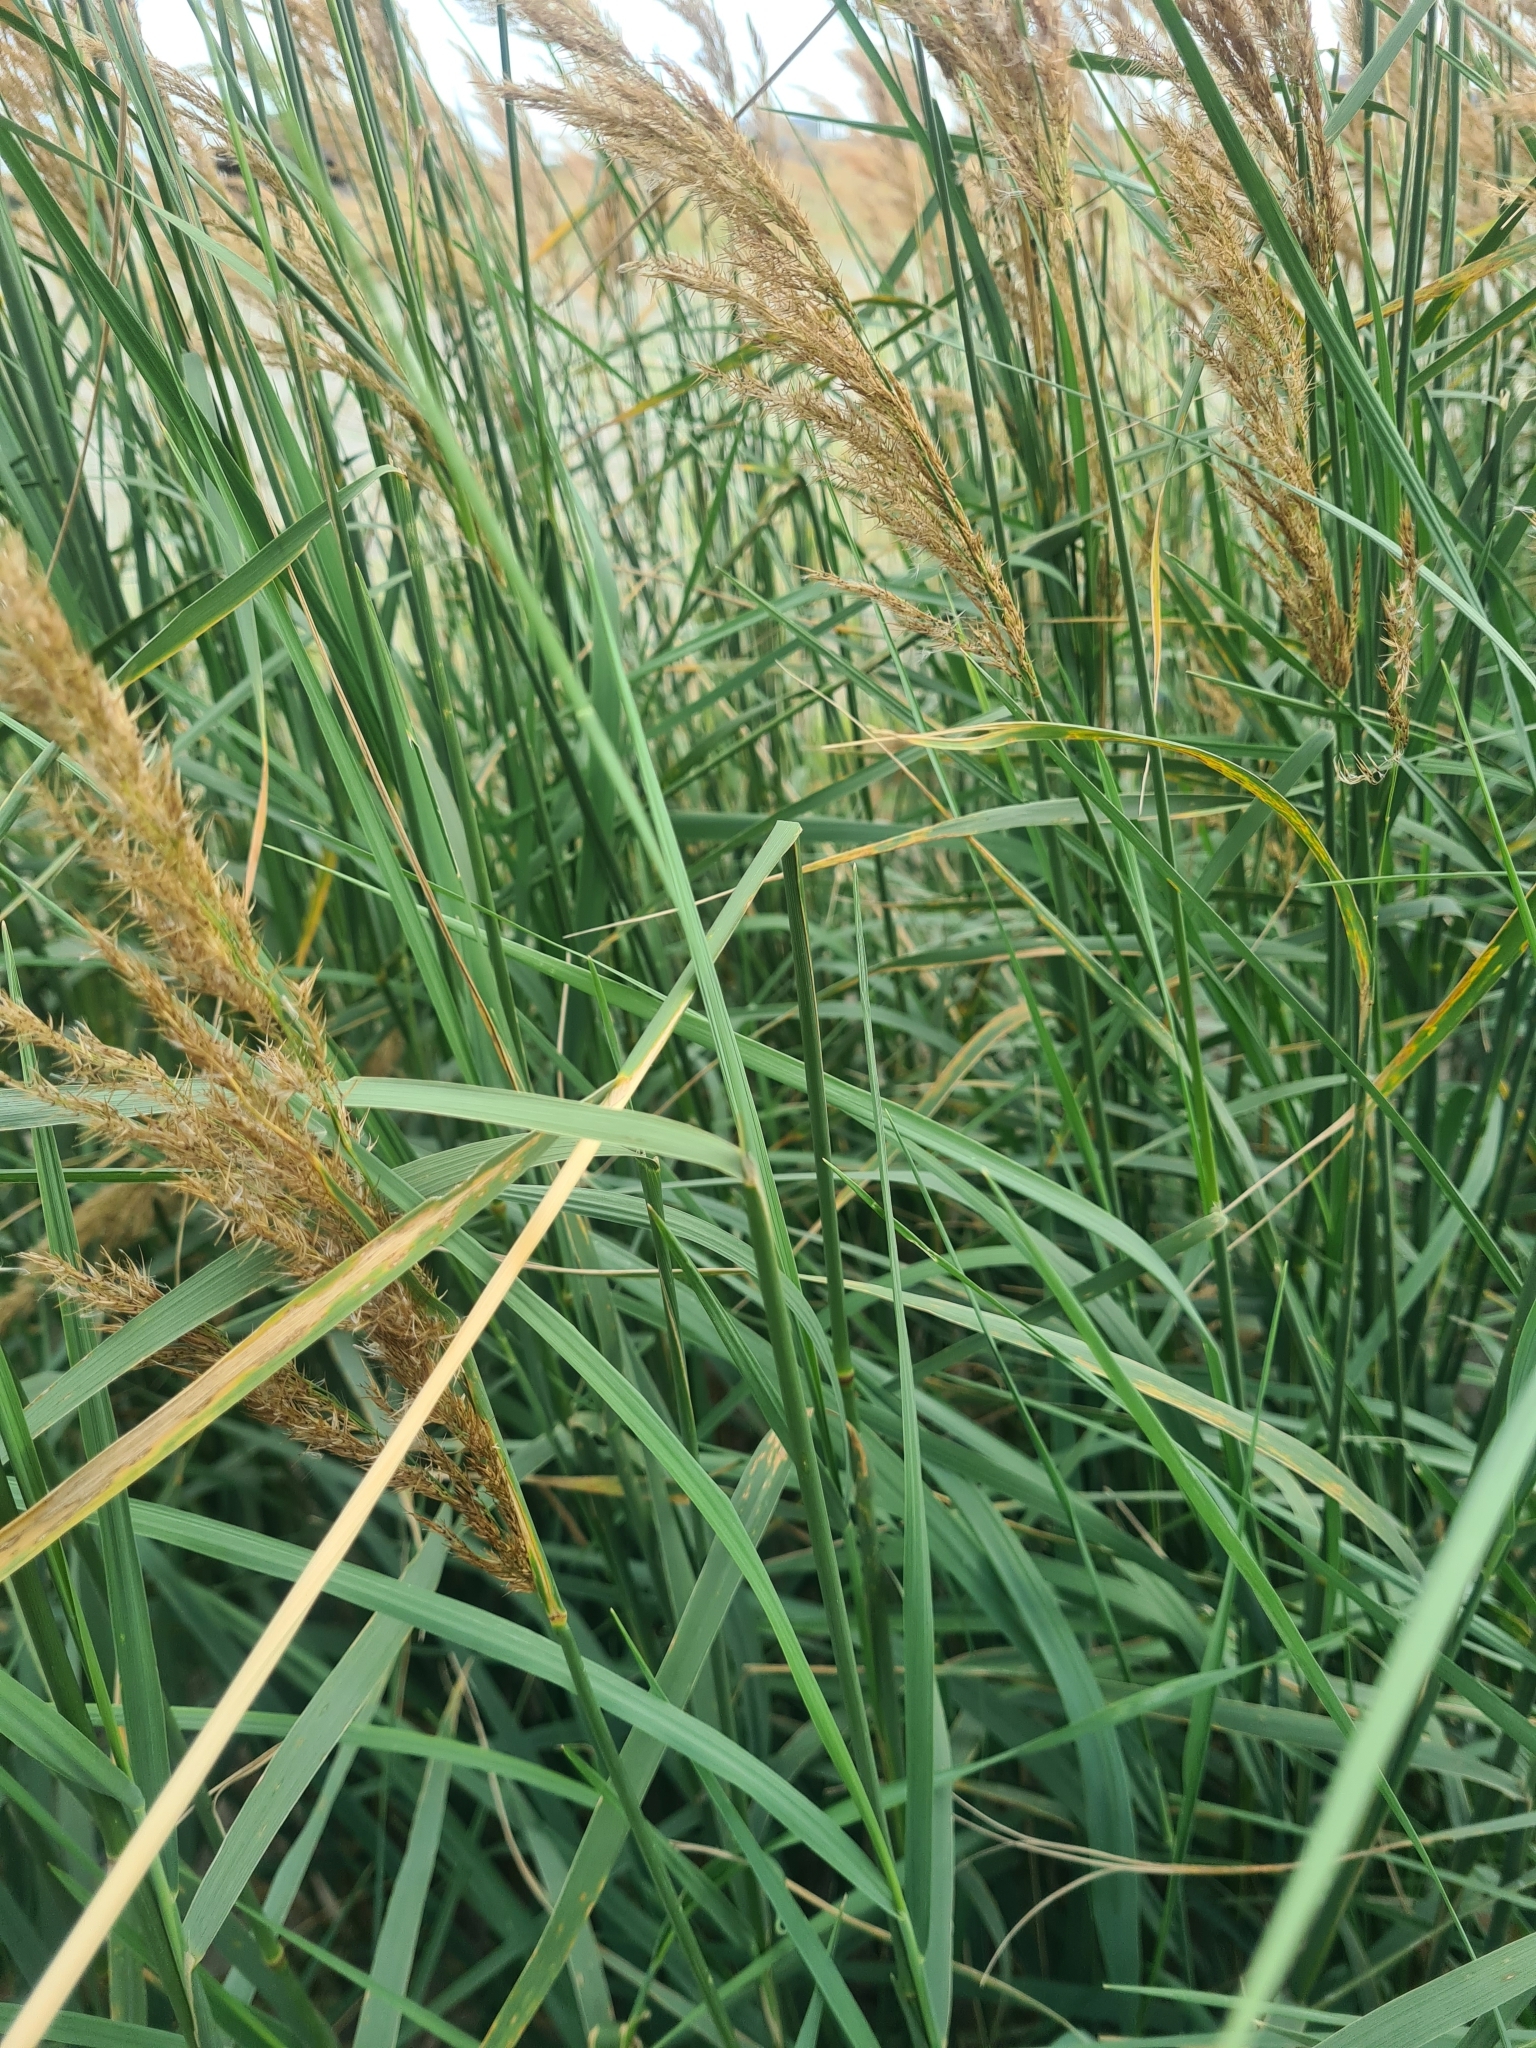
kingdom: Plantae
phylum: Tracheophyta
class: Liliopsida
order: Poales
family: Poaceae
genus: Calamagrostis
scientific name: Calamagrostis epigejos
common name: Wood small-reed
